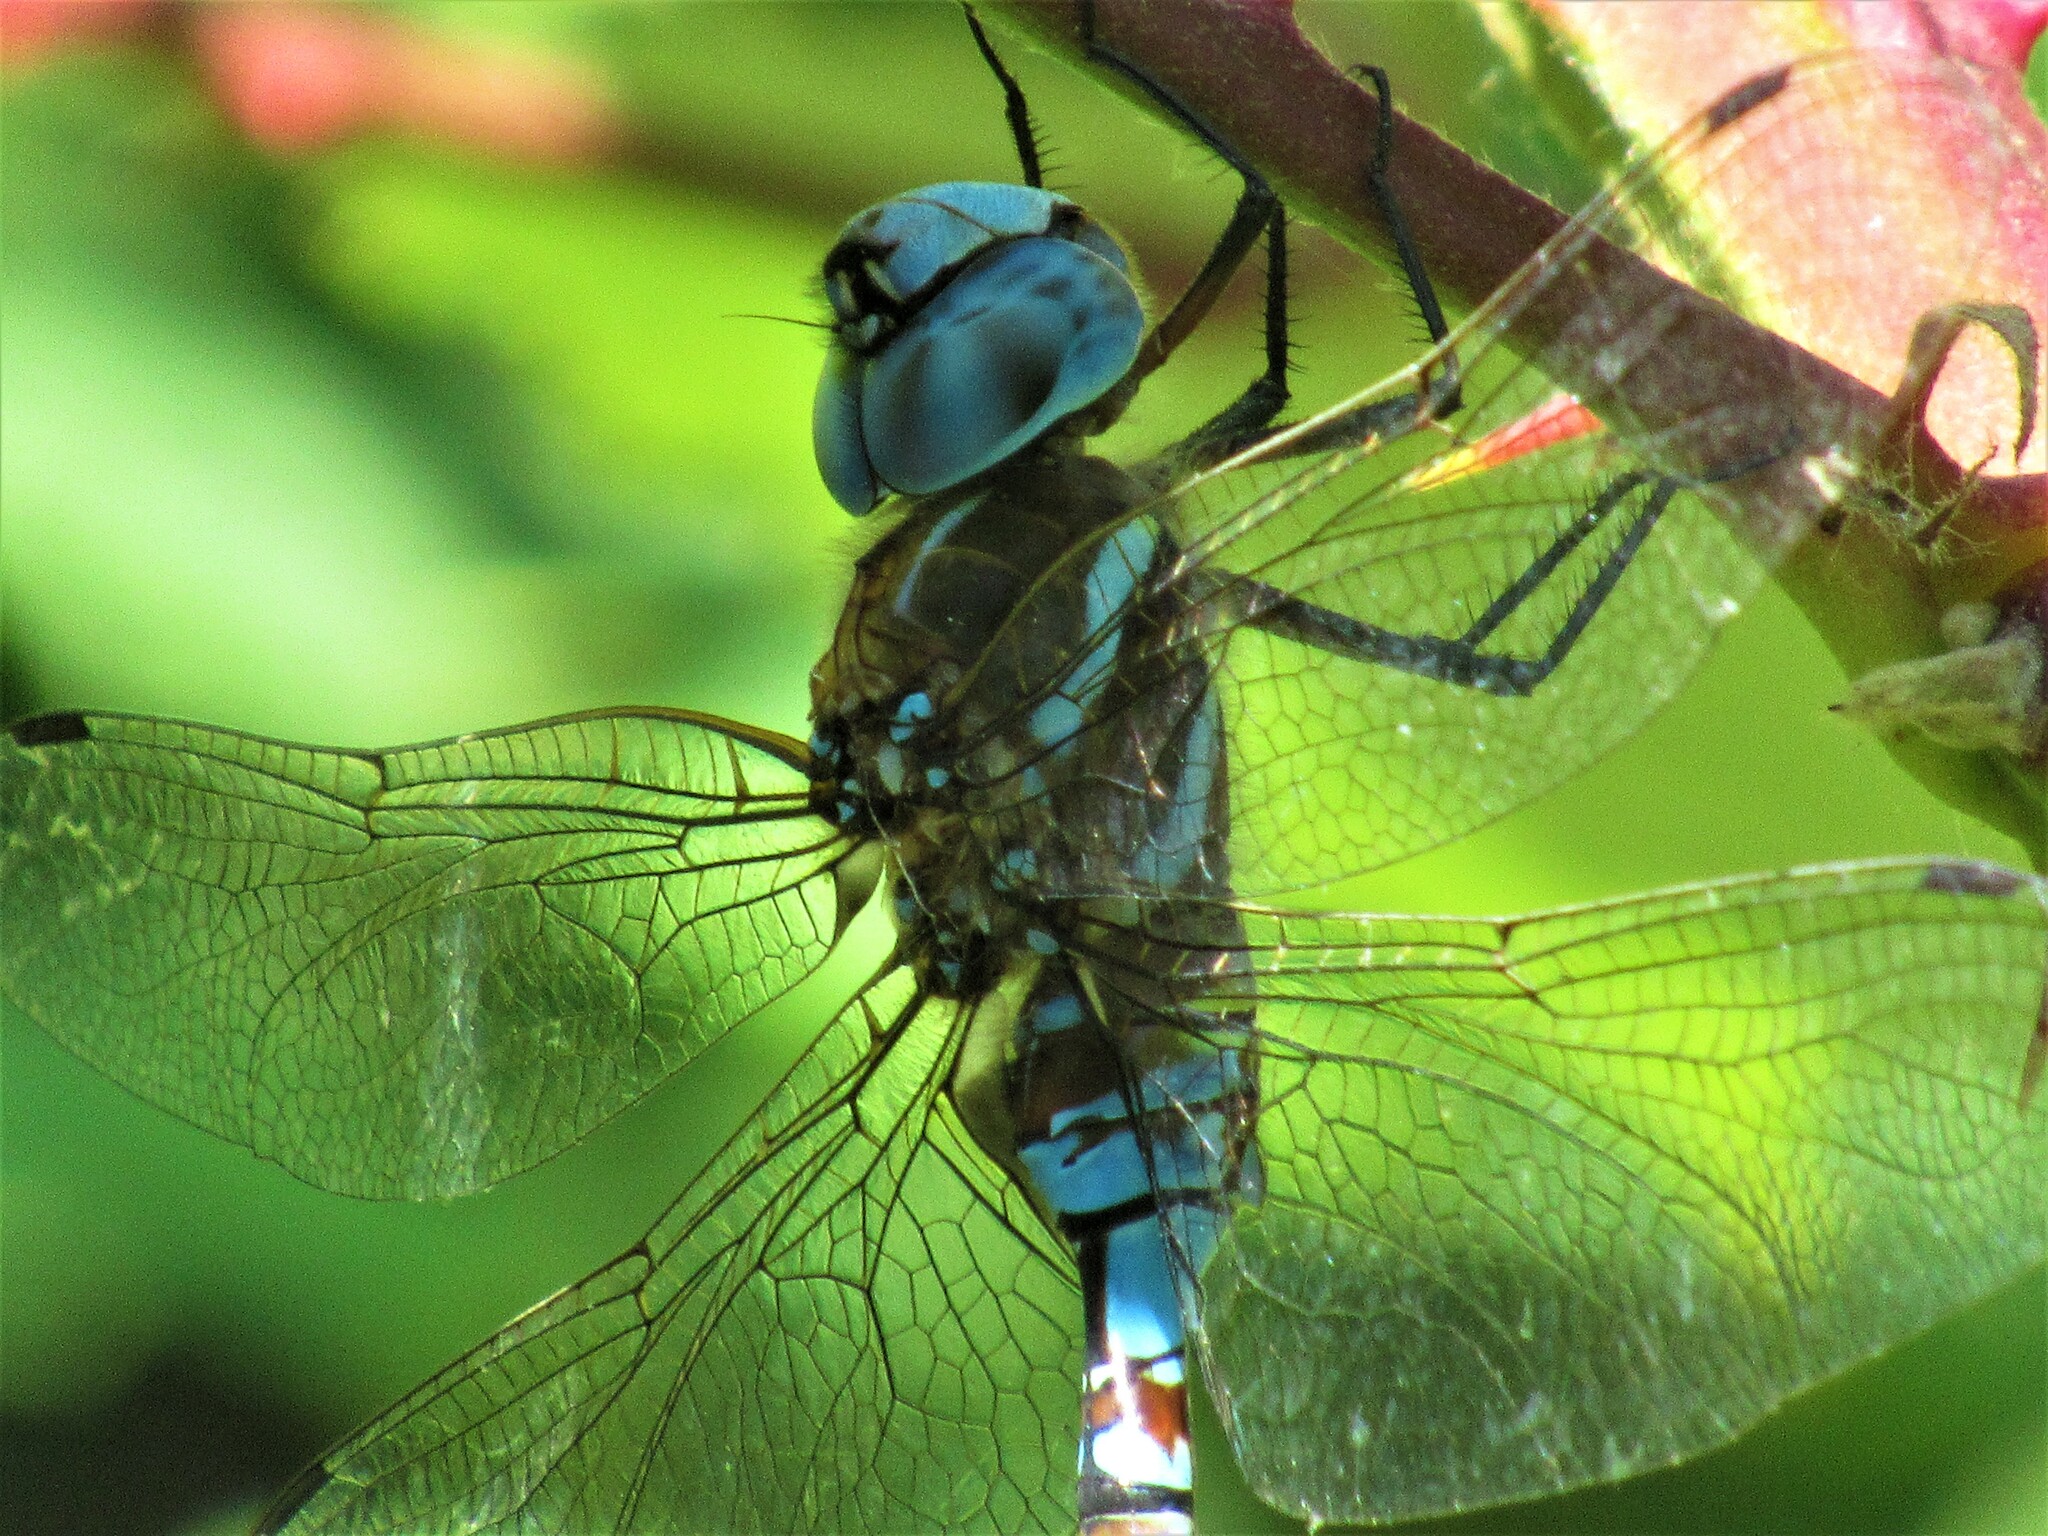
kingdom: Animalia
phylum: Arthropoda
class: Insecta
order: Odonata
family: Aeshnidae
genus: Rhionaeschna
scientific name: Rhionaeschna multicolor
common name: Blue-eyed darner
